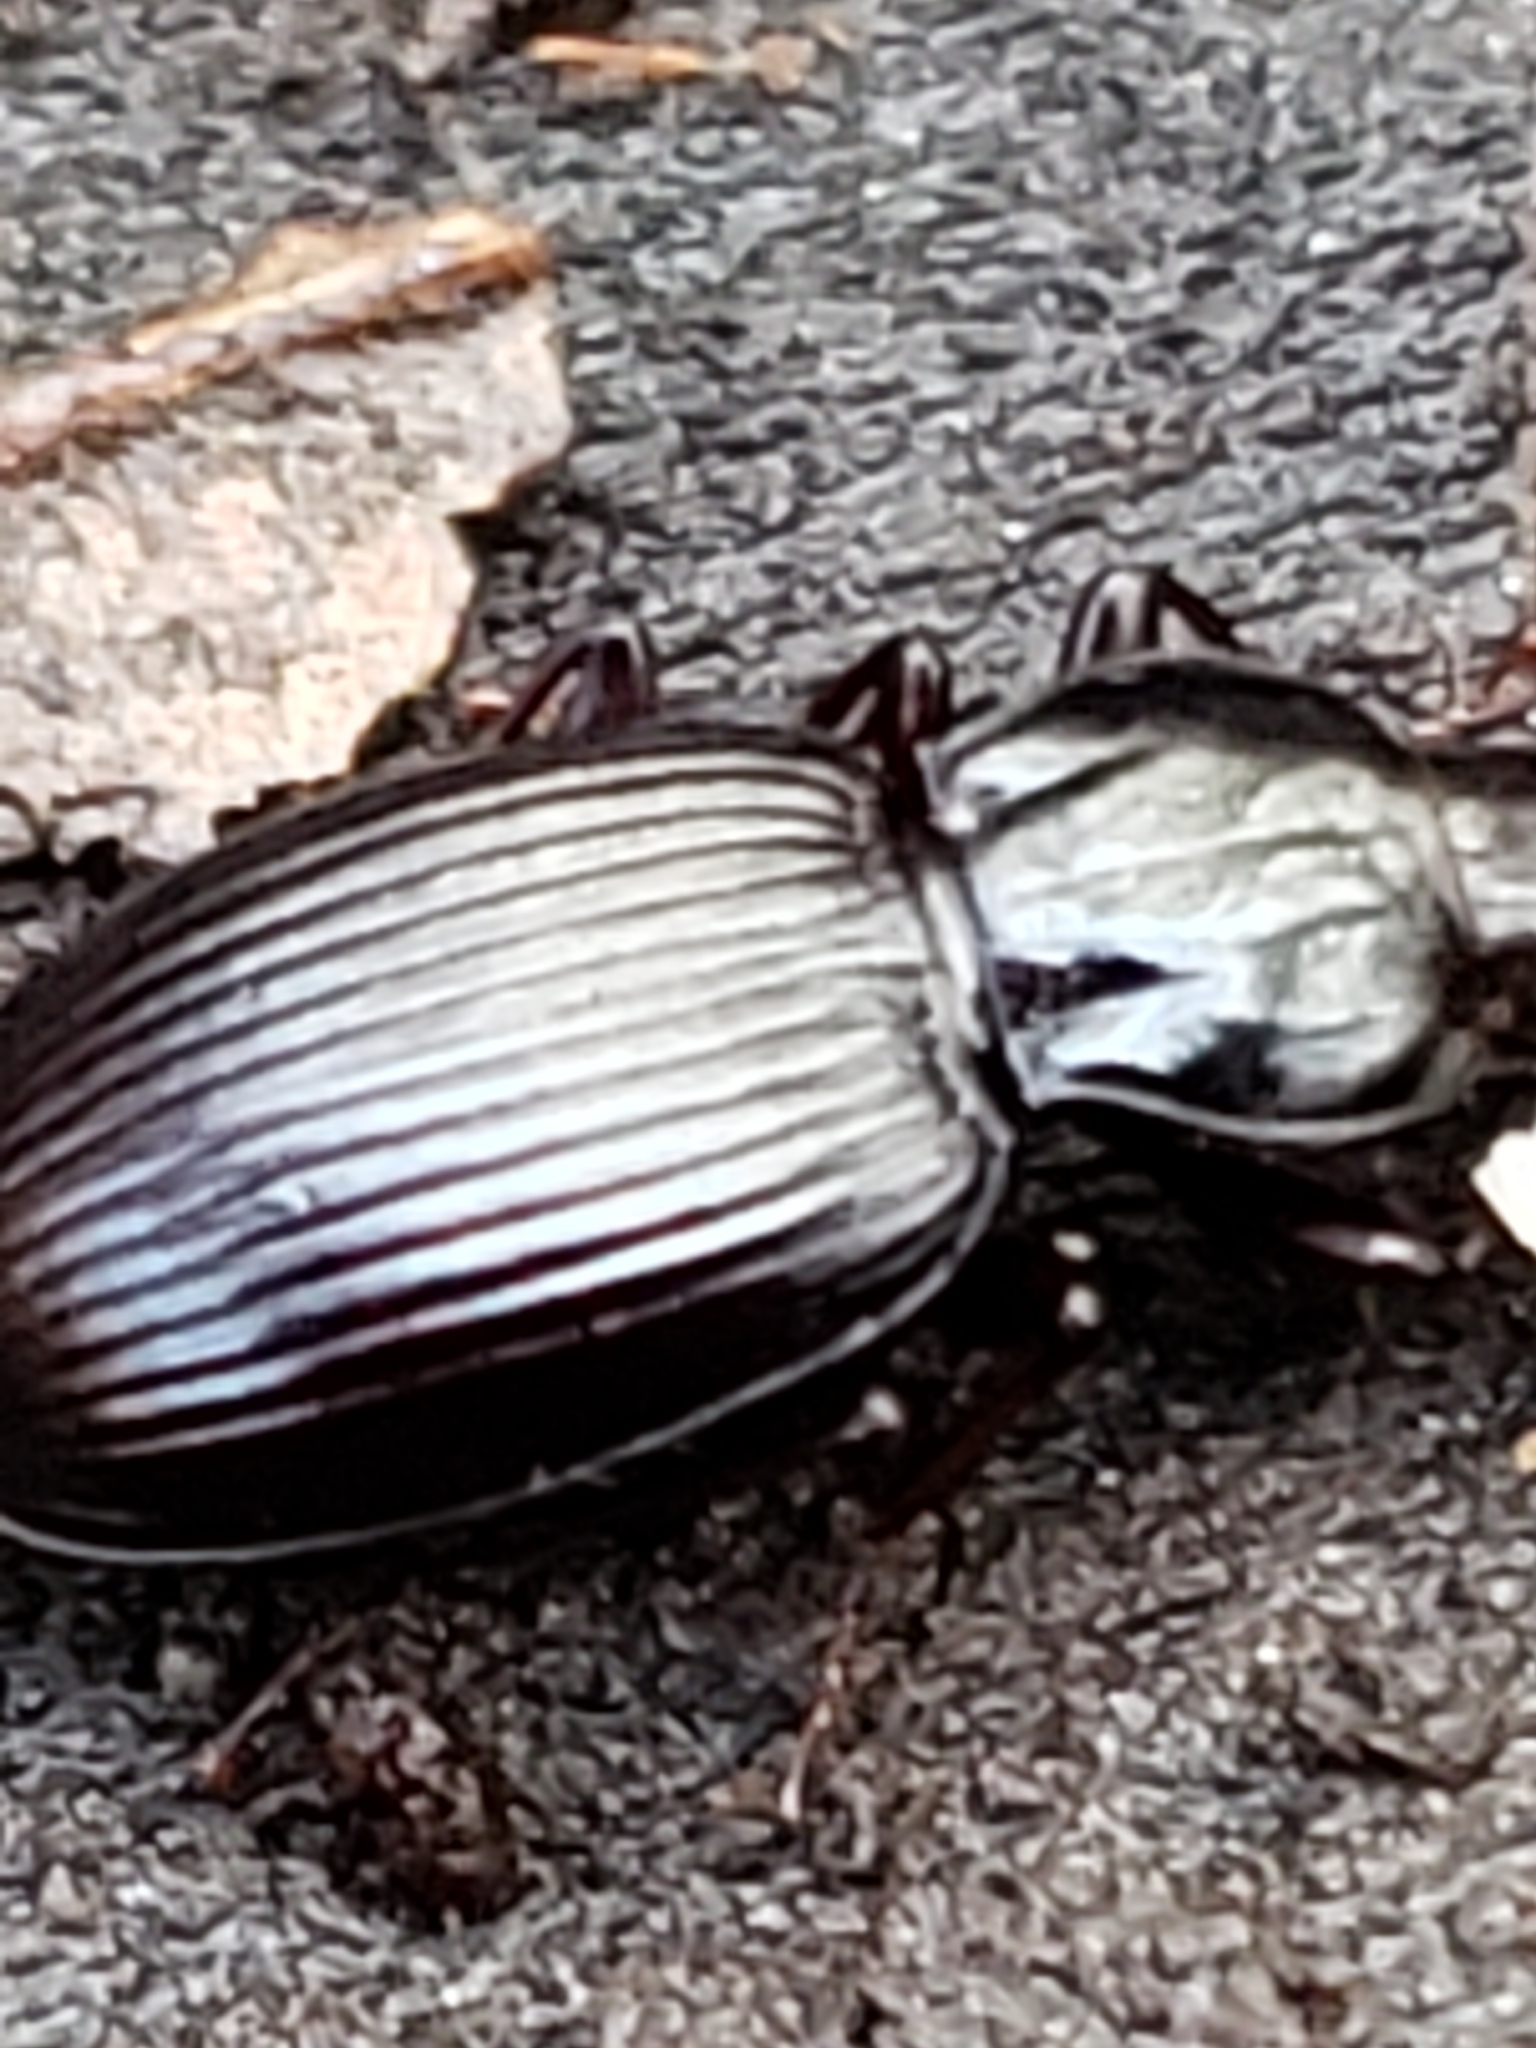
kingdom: Animalia
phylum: Arthropoda
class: Insecta
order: Coleoptera
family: Carabidae
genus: Gastrellarius
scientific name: Gastrellarius honestus
